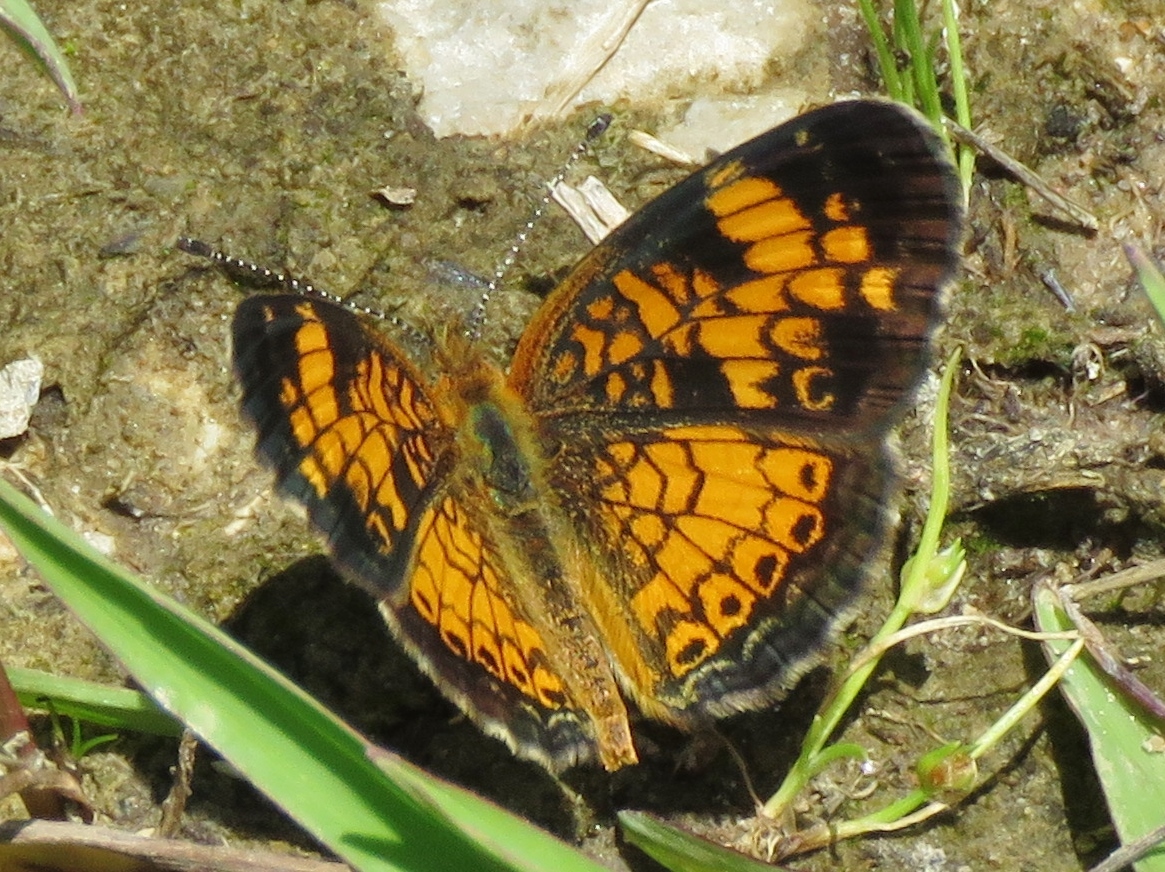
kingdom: Animalia
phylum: Arthropoda
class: Insecta
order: Lepidoptera
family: Nymphalidae
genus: Phyciodes
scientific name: Phyciodes tharos
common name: Pearl crescent
